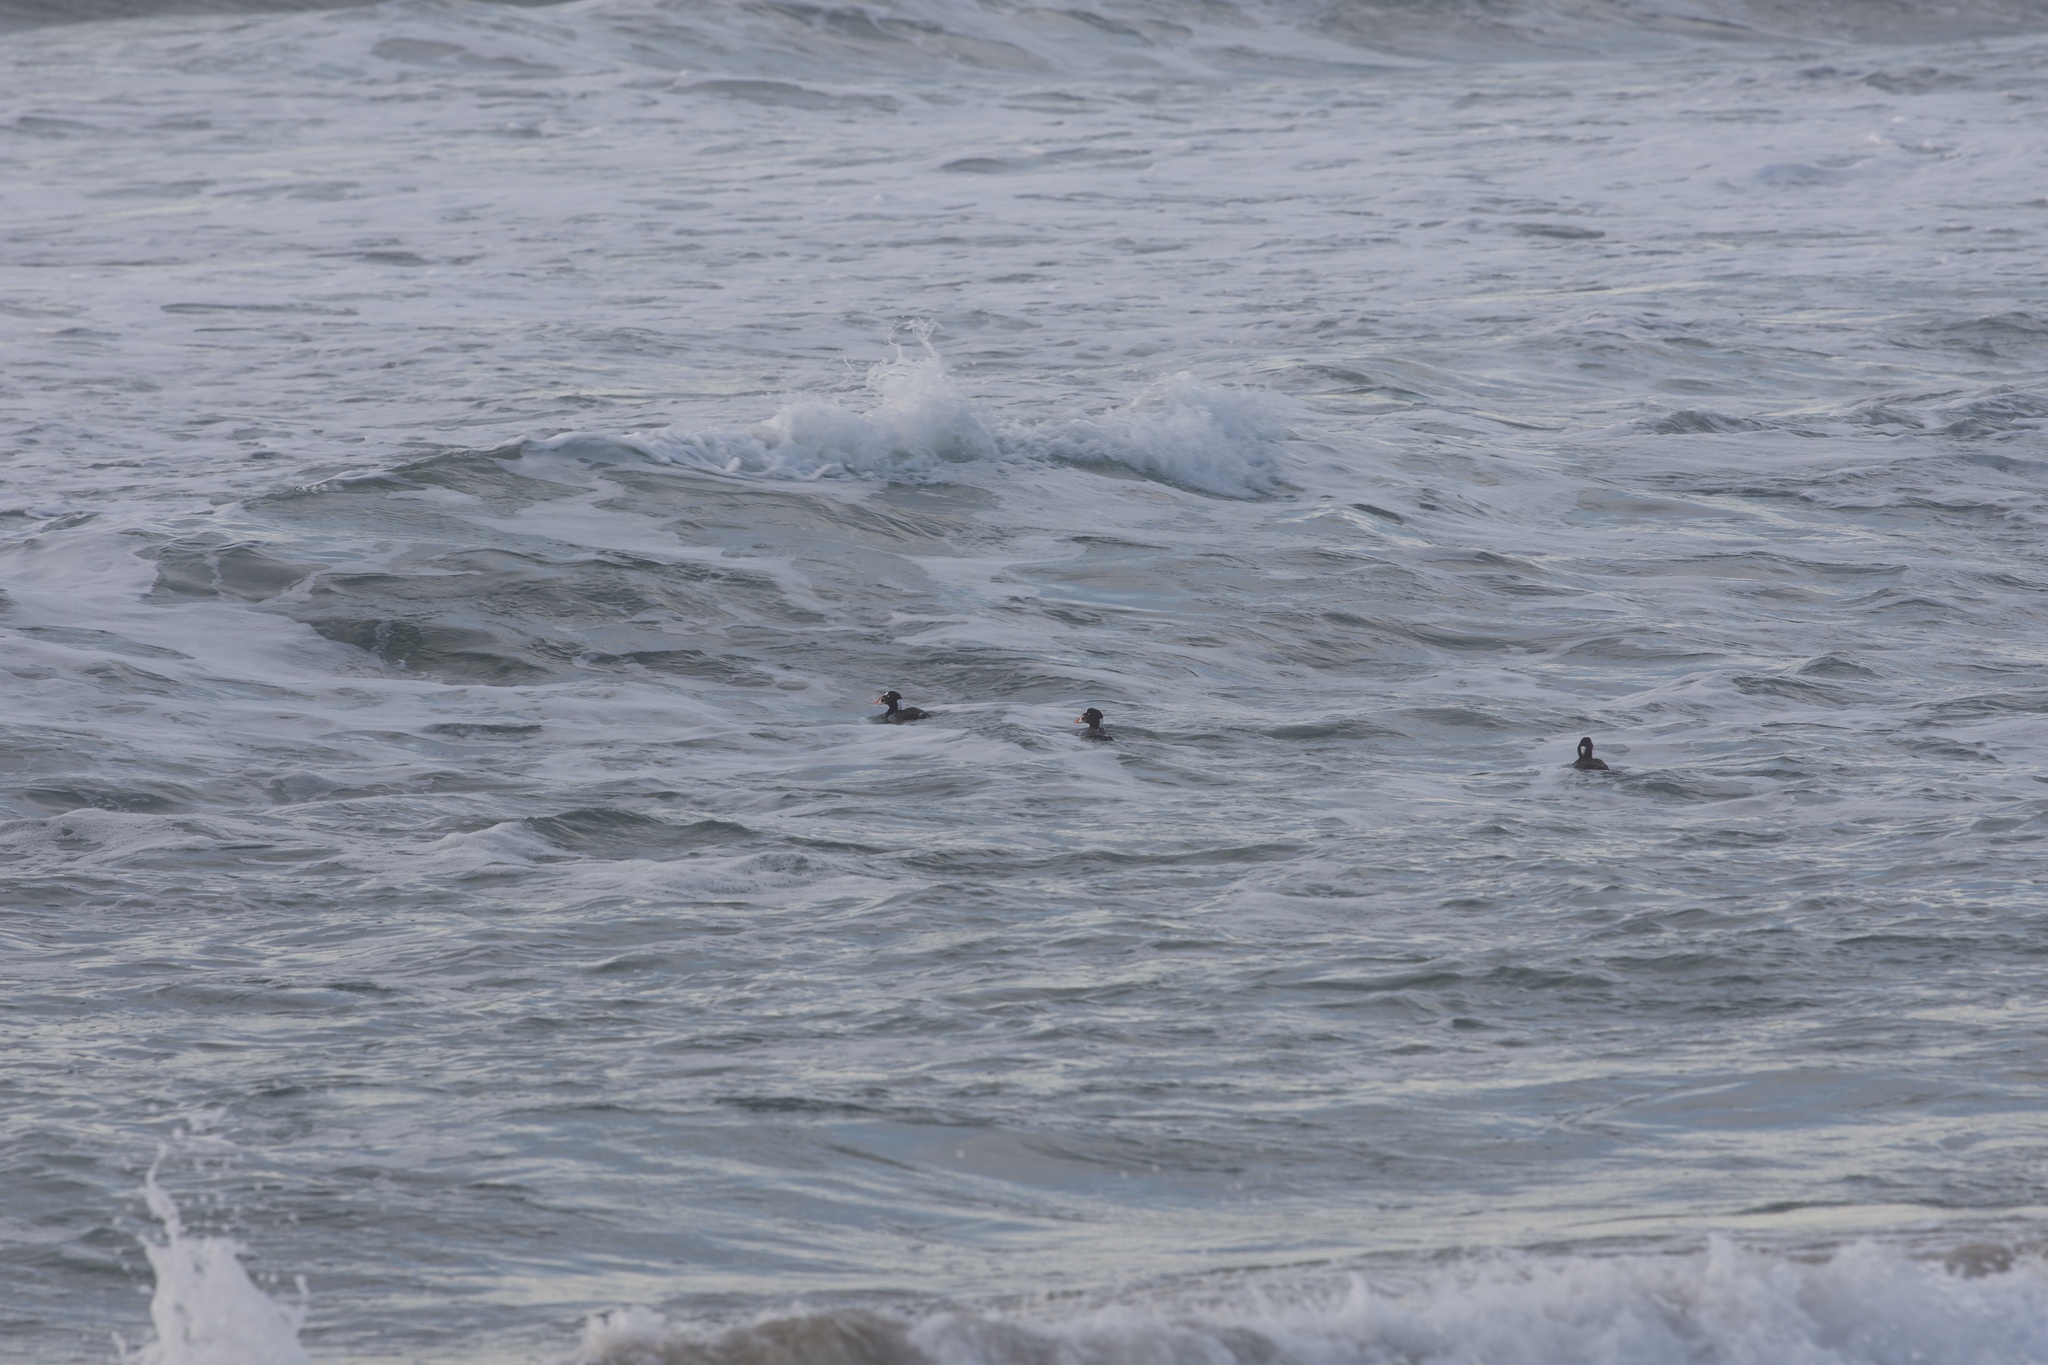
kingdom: Animalia
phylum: Chordata
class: Aves
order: Anseriformes
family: Anatidae
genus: Melanitta
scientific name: Melanitta perspicillata
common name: Surf scoter
